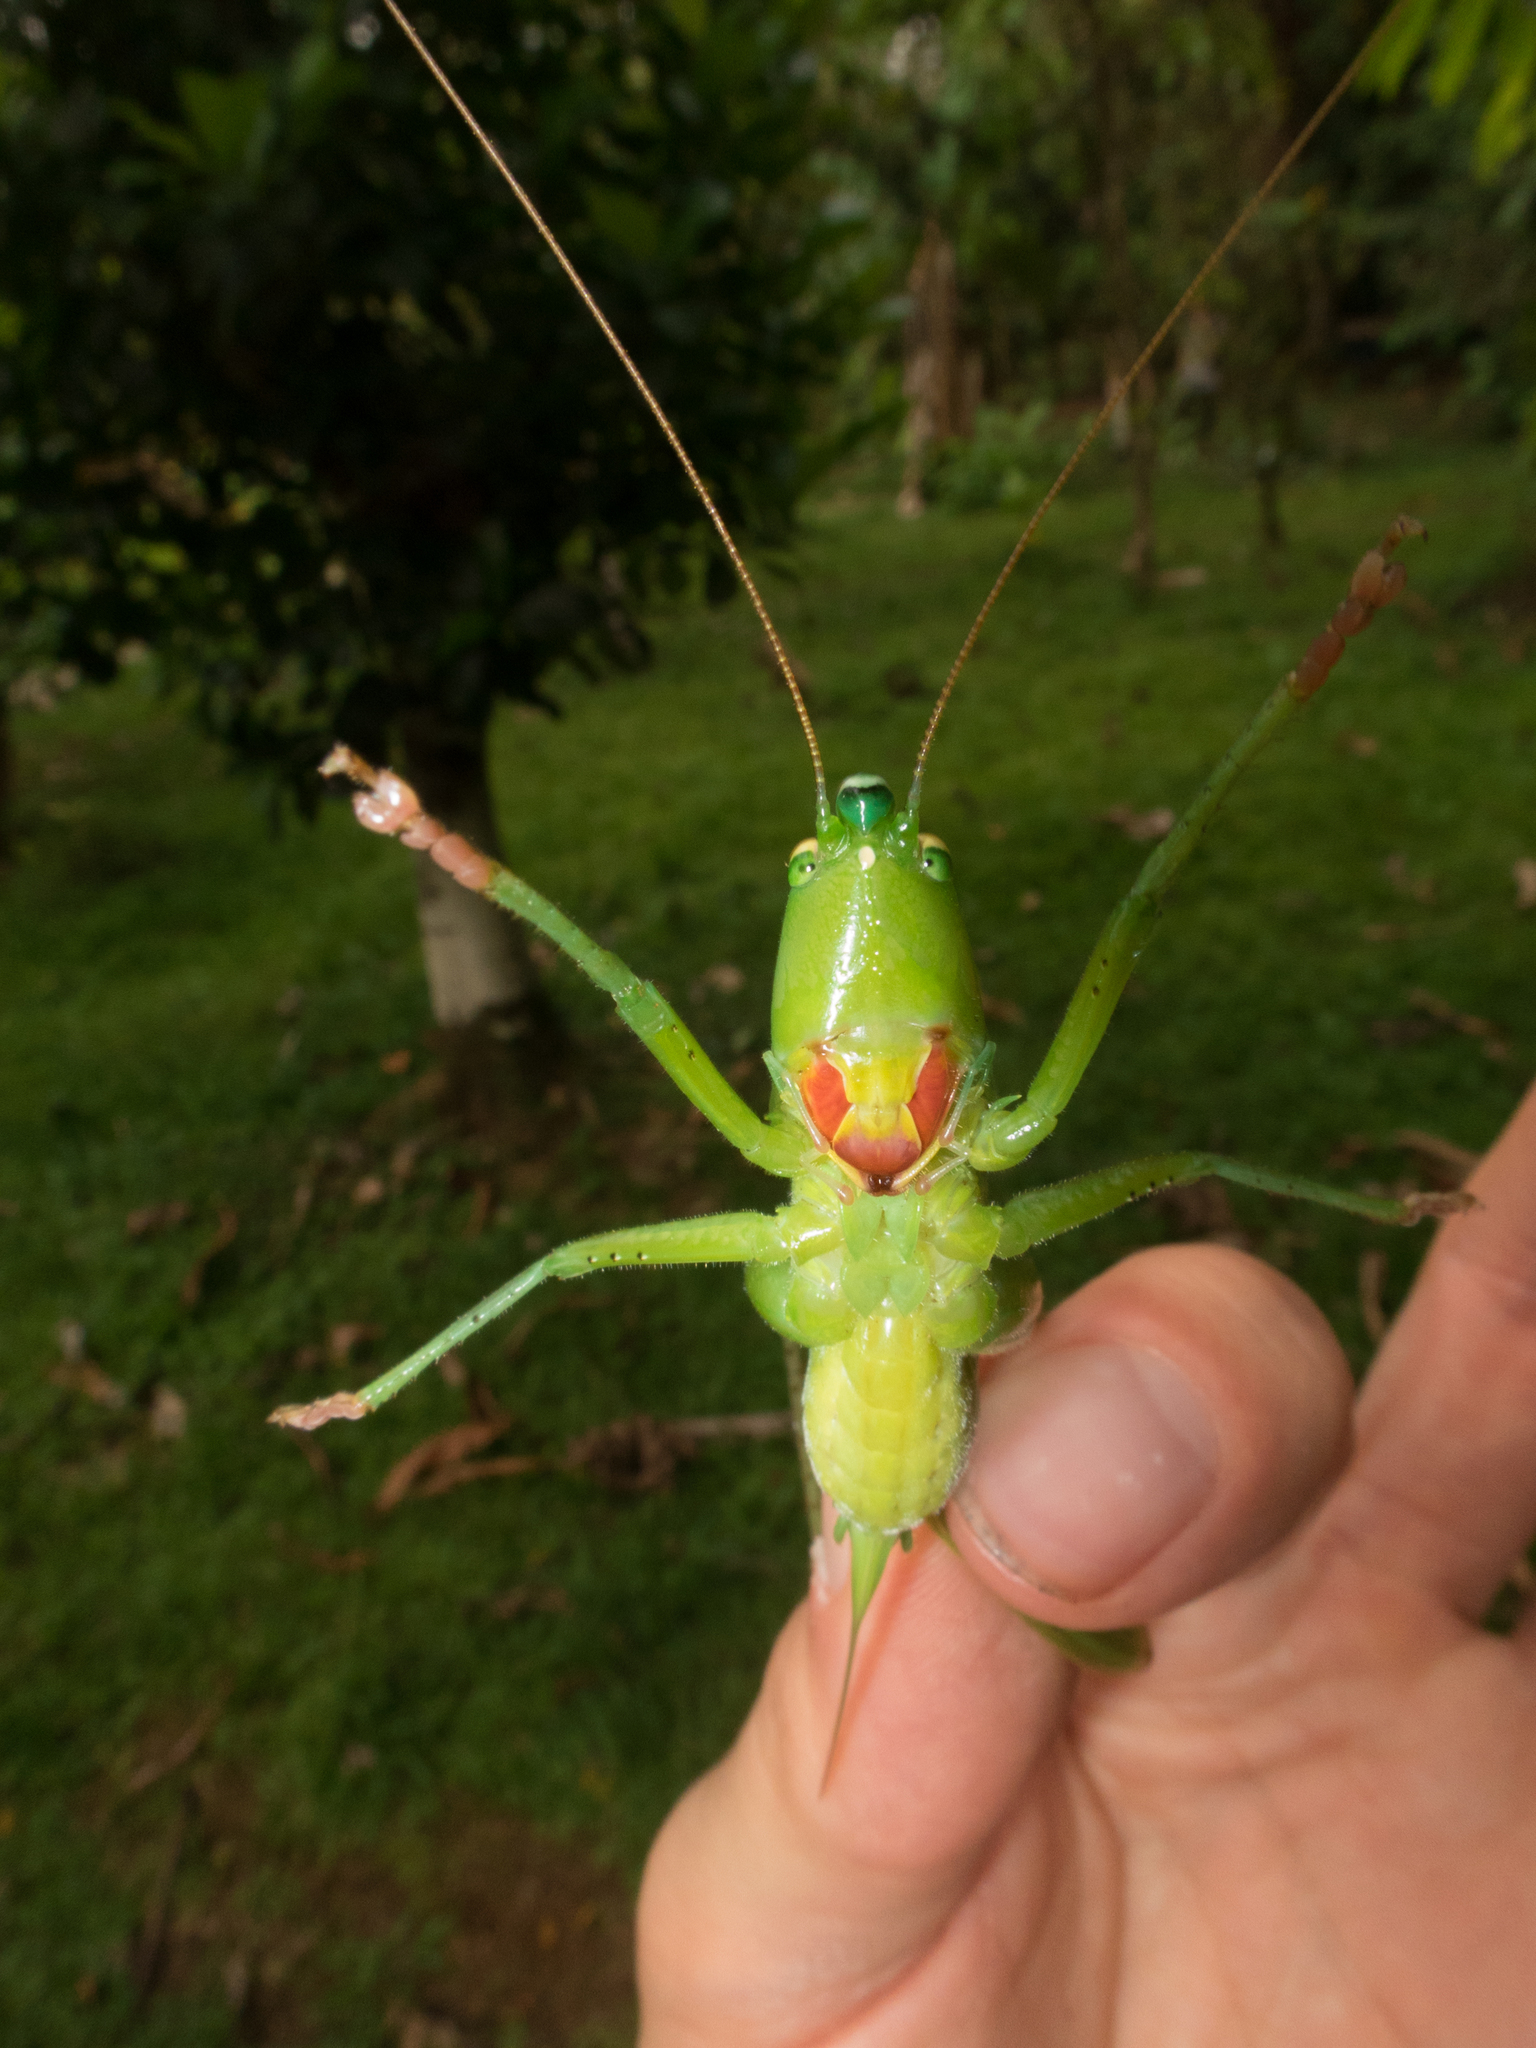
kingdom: Animalia
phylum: Arthropoda
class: Insecta
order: Orthoptera
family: Tettigoniidae
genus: Neoconocephalus
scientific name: Neoconocephalus affinis
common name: Rattler conehead
